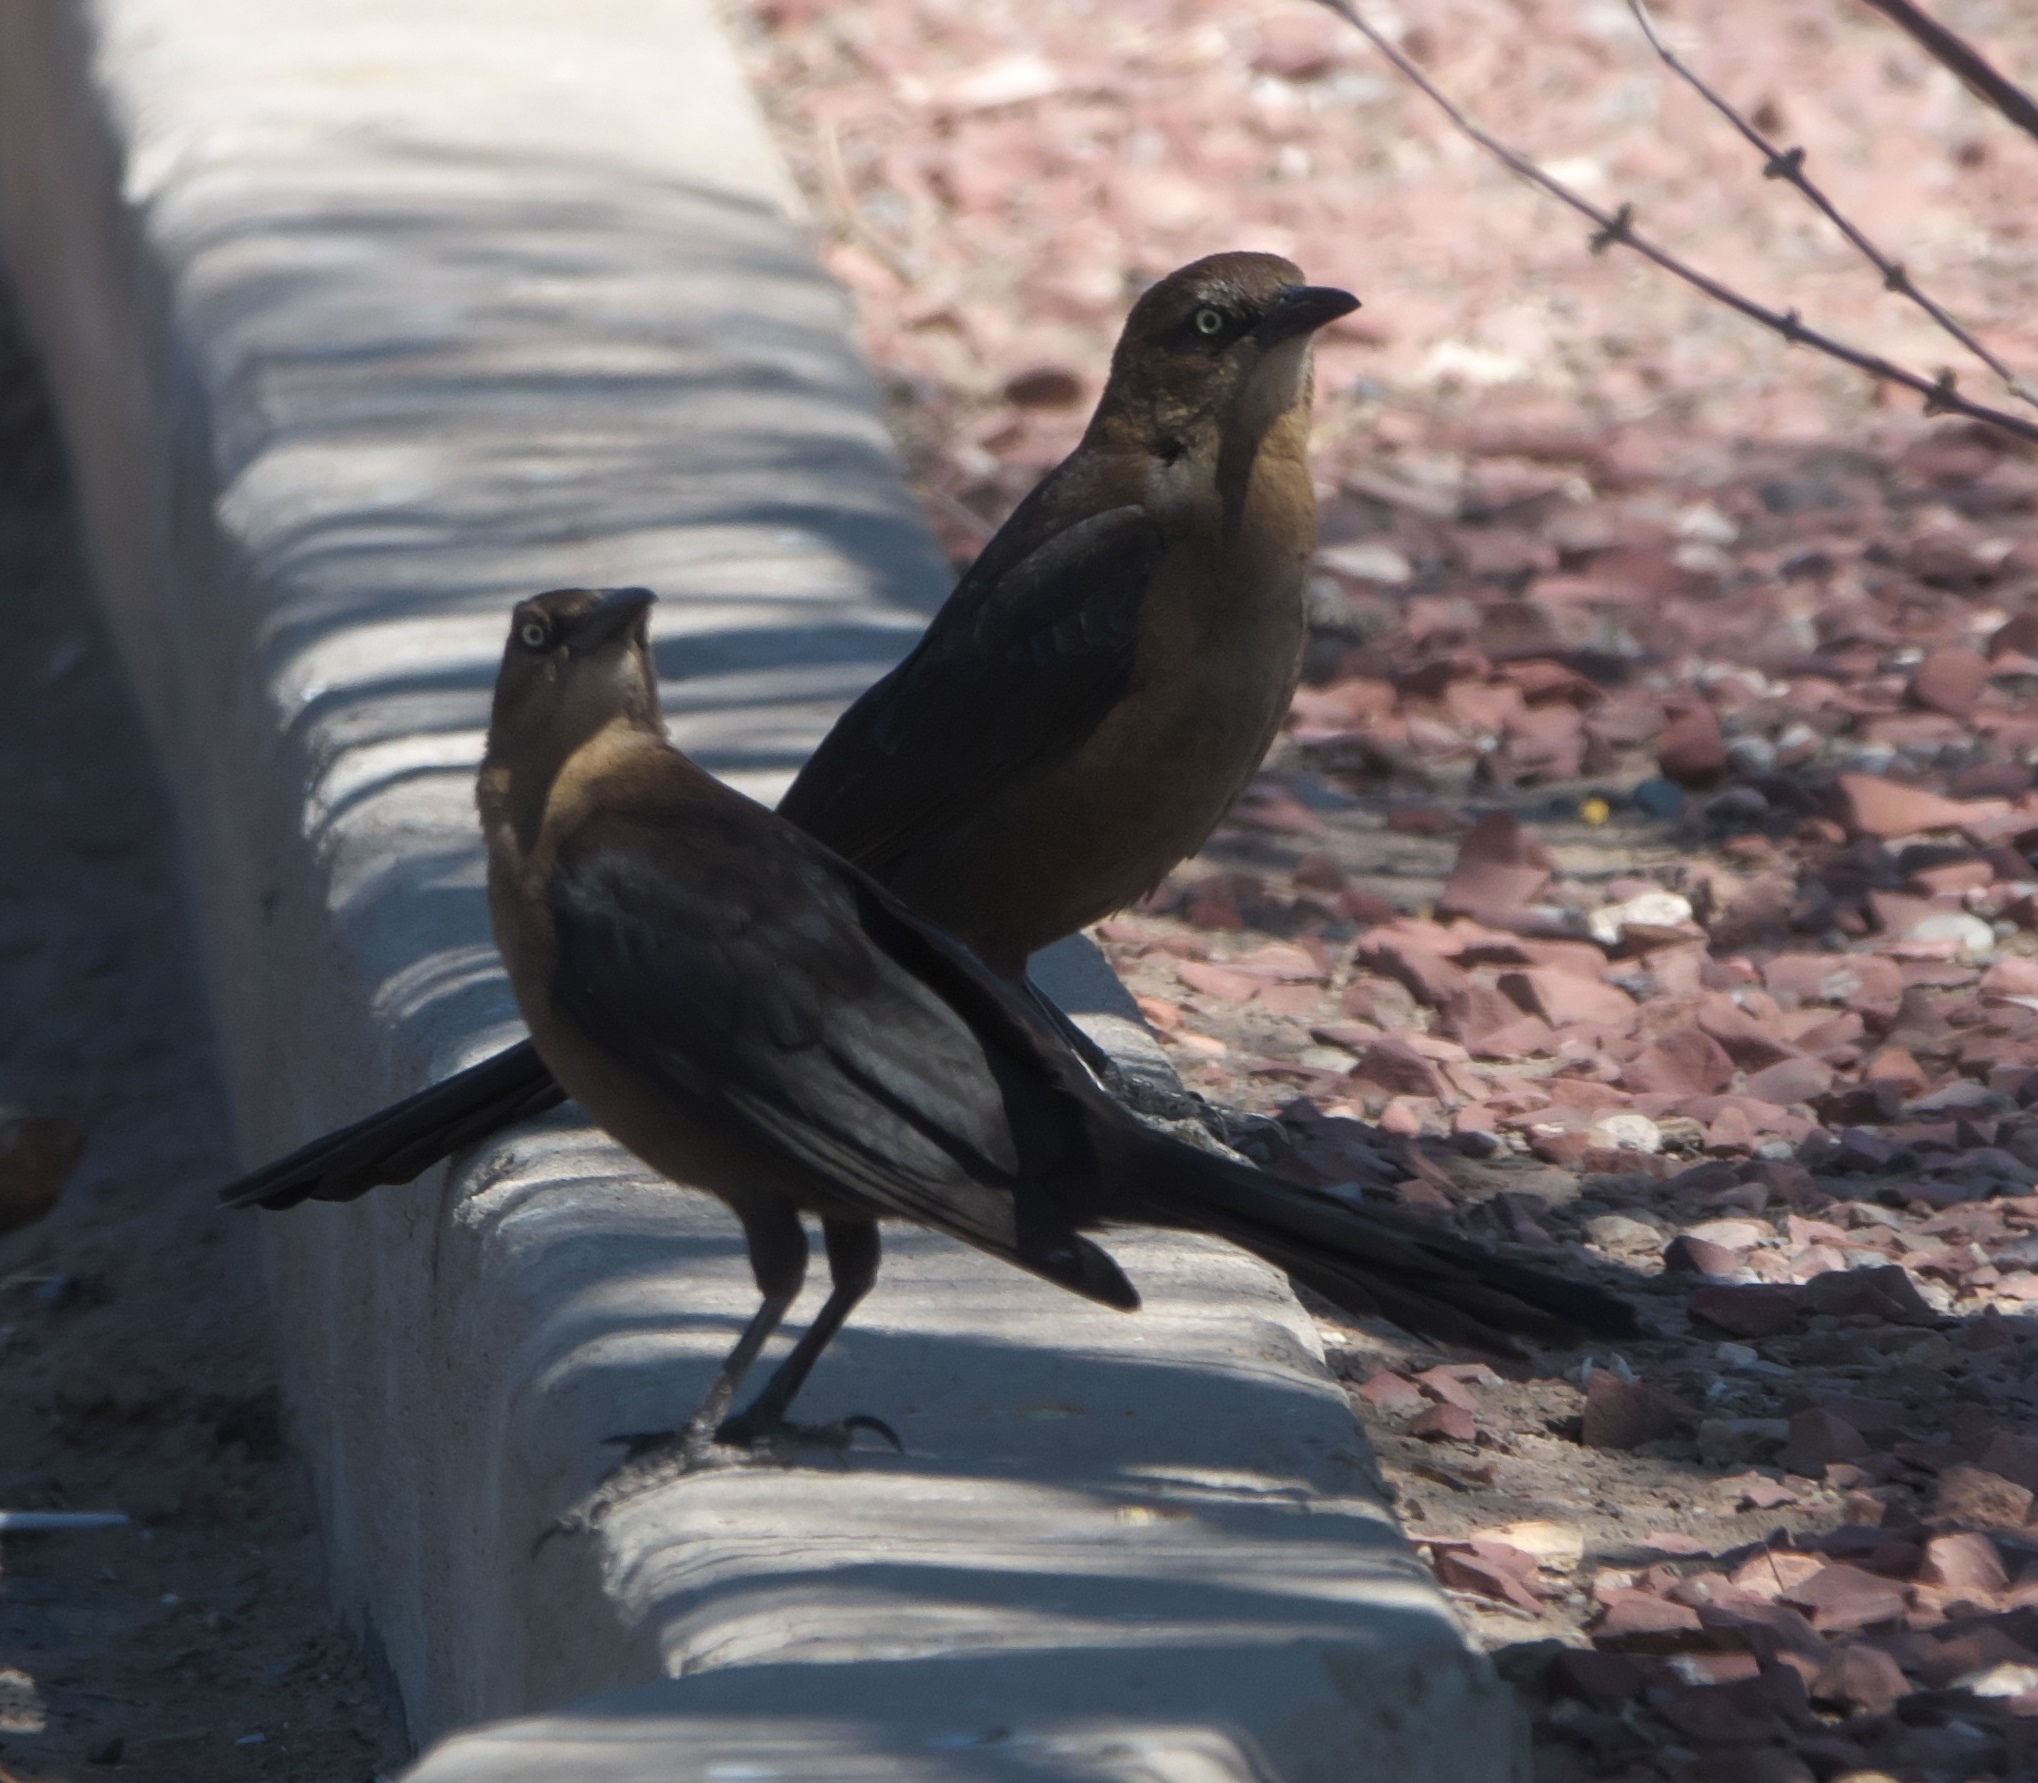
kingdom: Animalia
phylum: Chordata
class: Aves
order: Passeriformes
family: Icteridae
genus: Quiscalus
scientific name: Quiscalus mexicanus
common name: Great-tailed grackle
